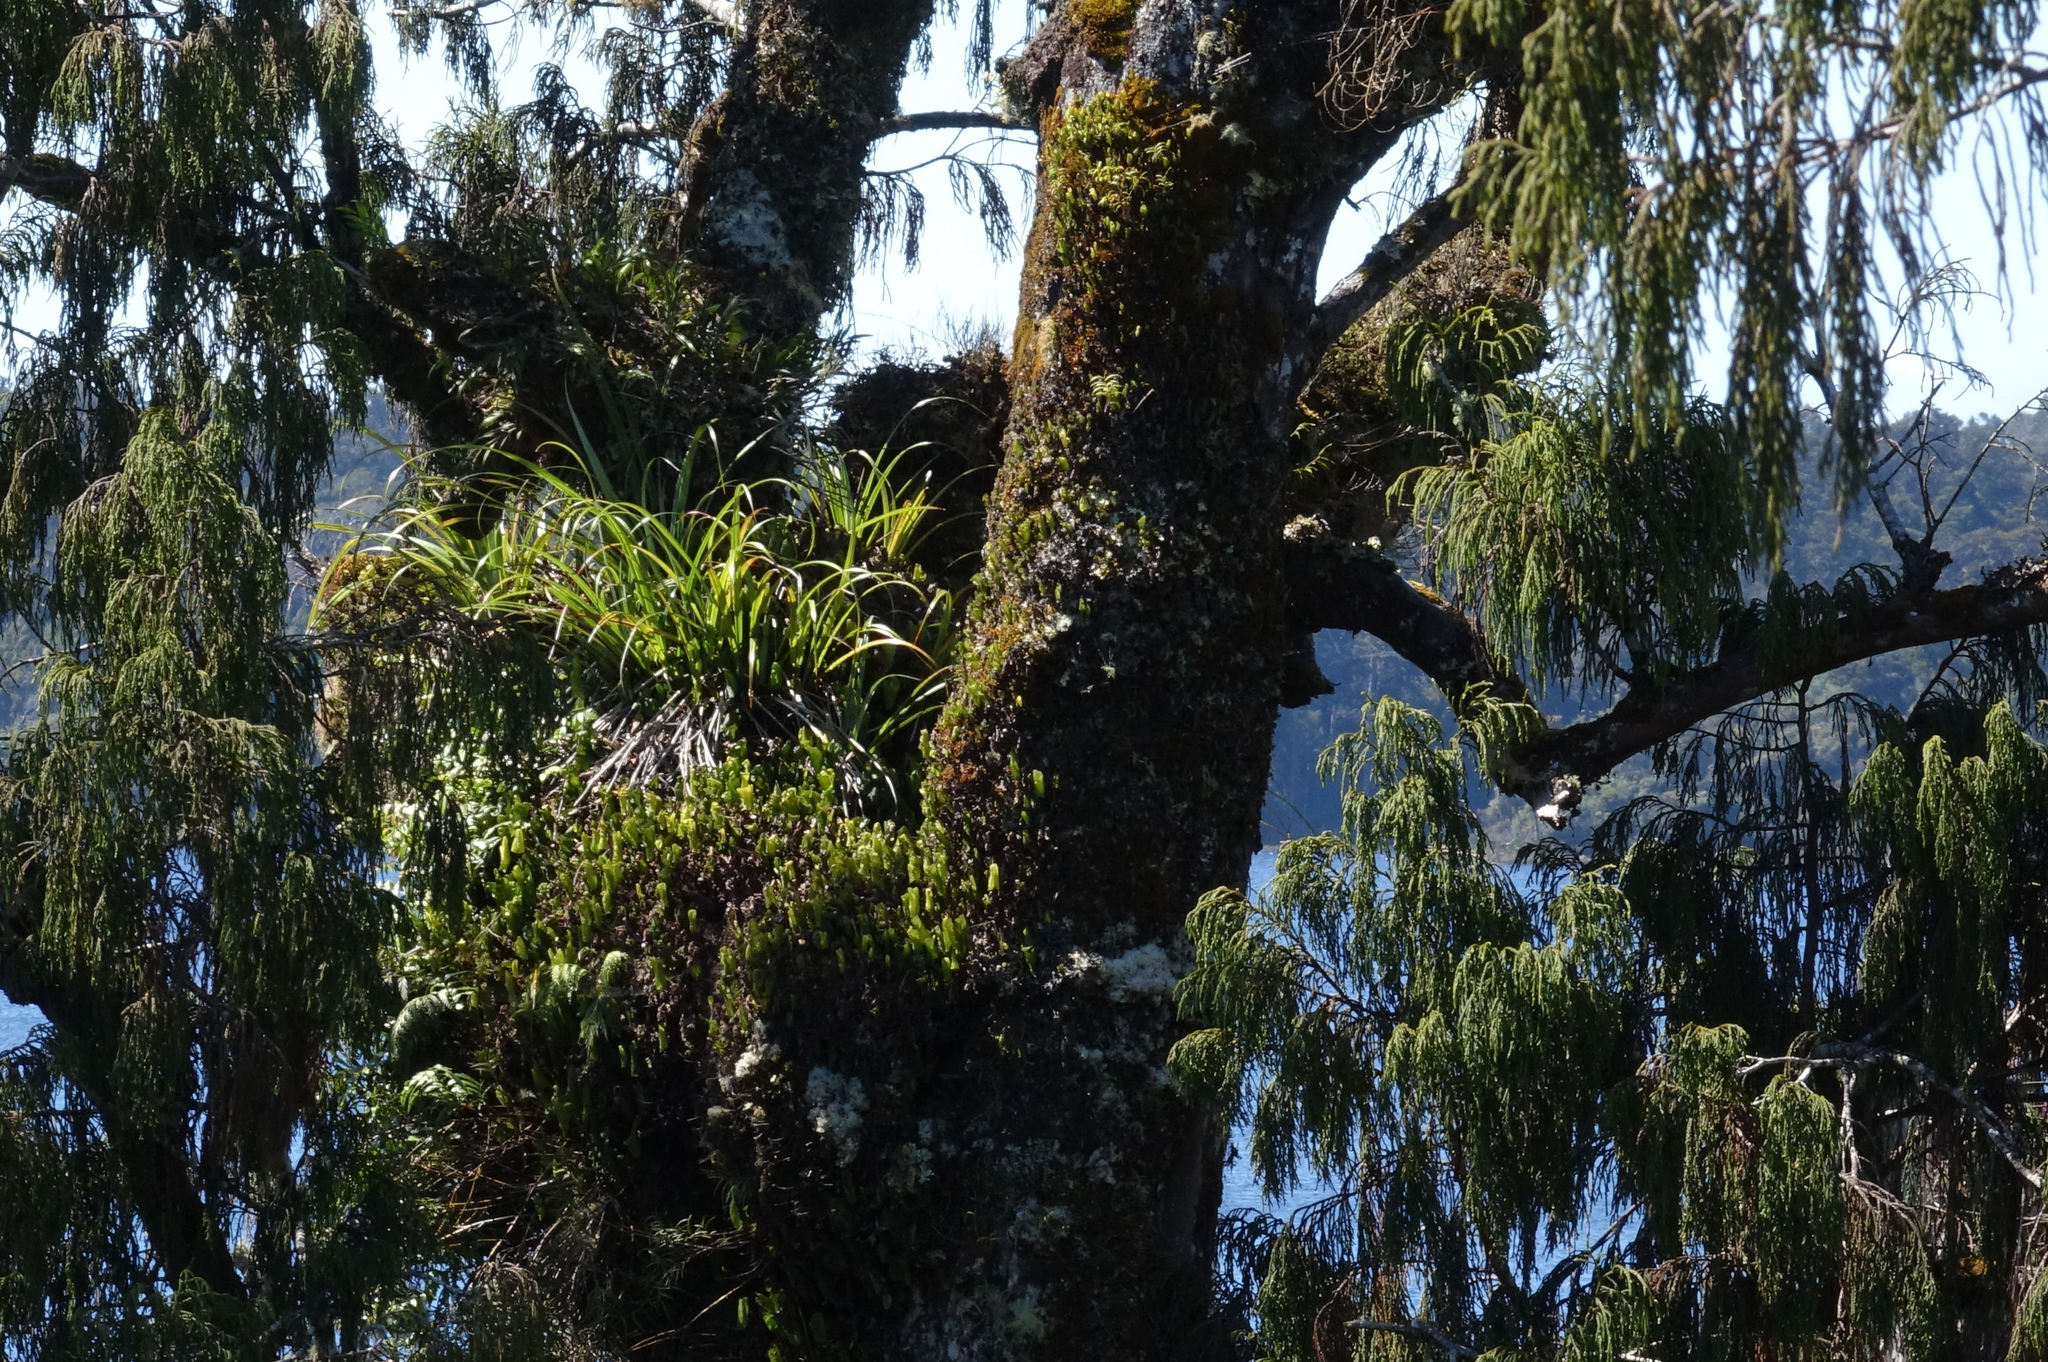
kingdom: Plantae
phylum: Tracheophyta
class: Liliopsida
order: Asparagales
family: Asteliaceae
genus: Astelia
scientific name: Astelia solandri
